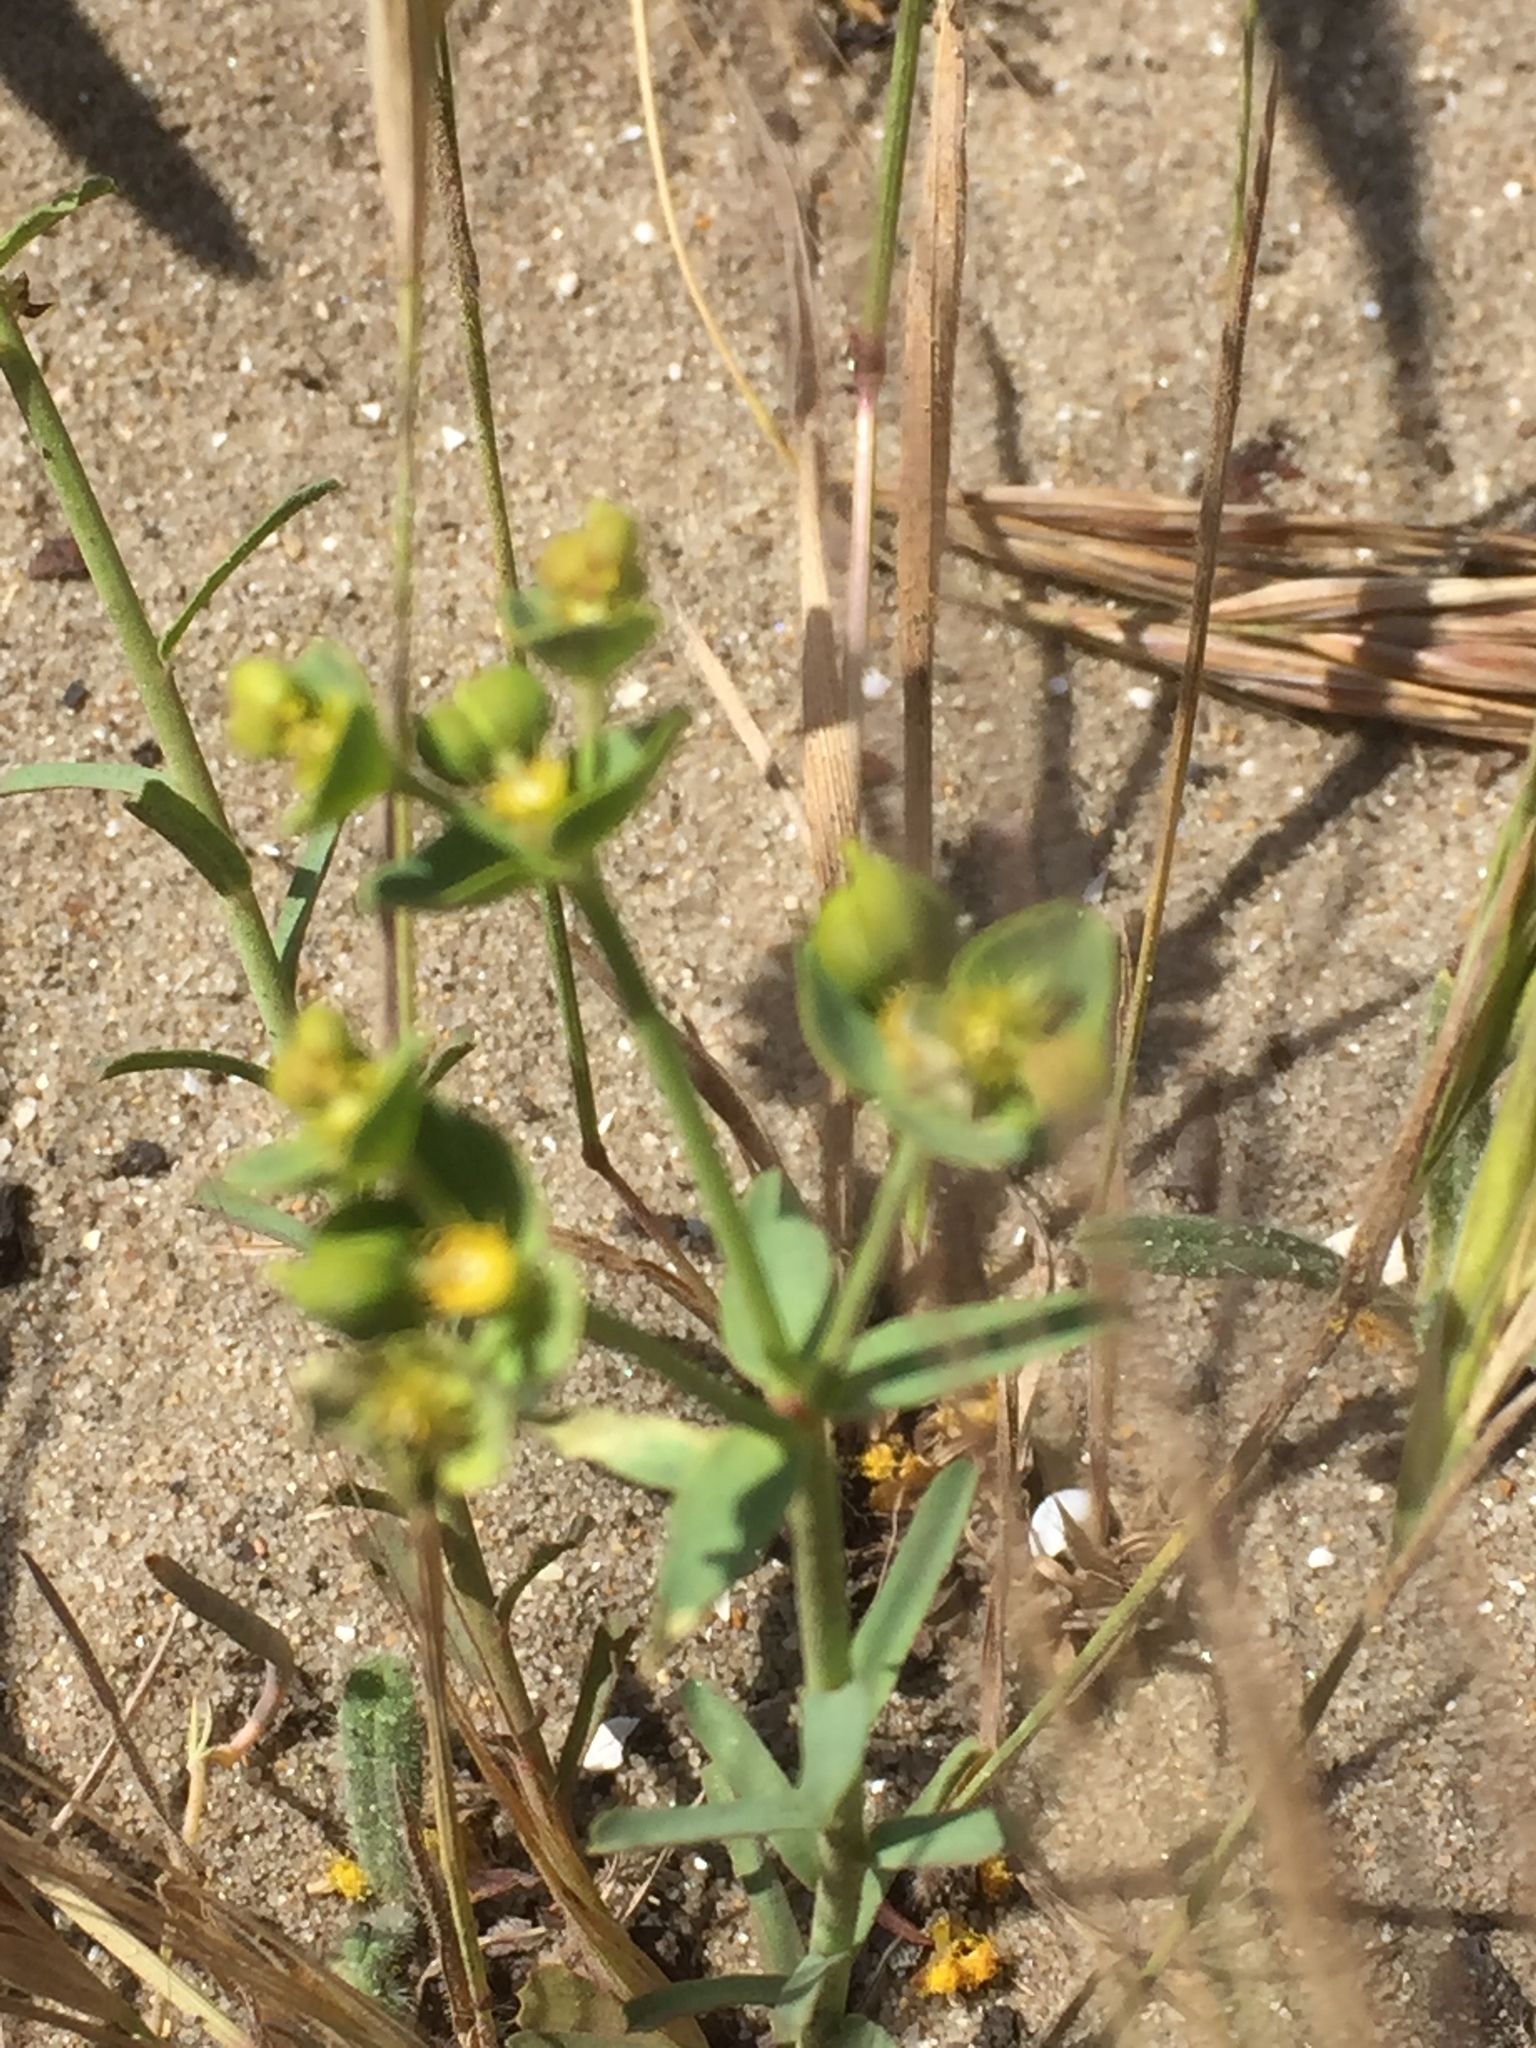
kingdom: Plantae
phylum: Tracheophyta
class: Magnoliopsida
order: Malpighiales
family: Euphorbiaceae
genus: Euphorbia
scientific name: Euphorbia terracina
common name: Geraldton carnation weed
